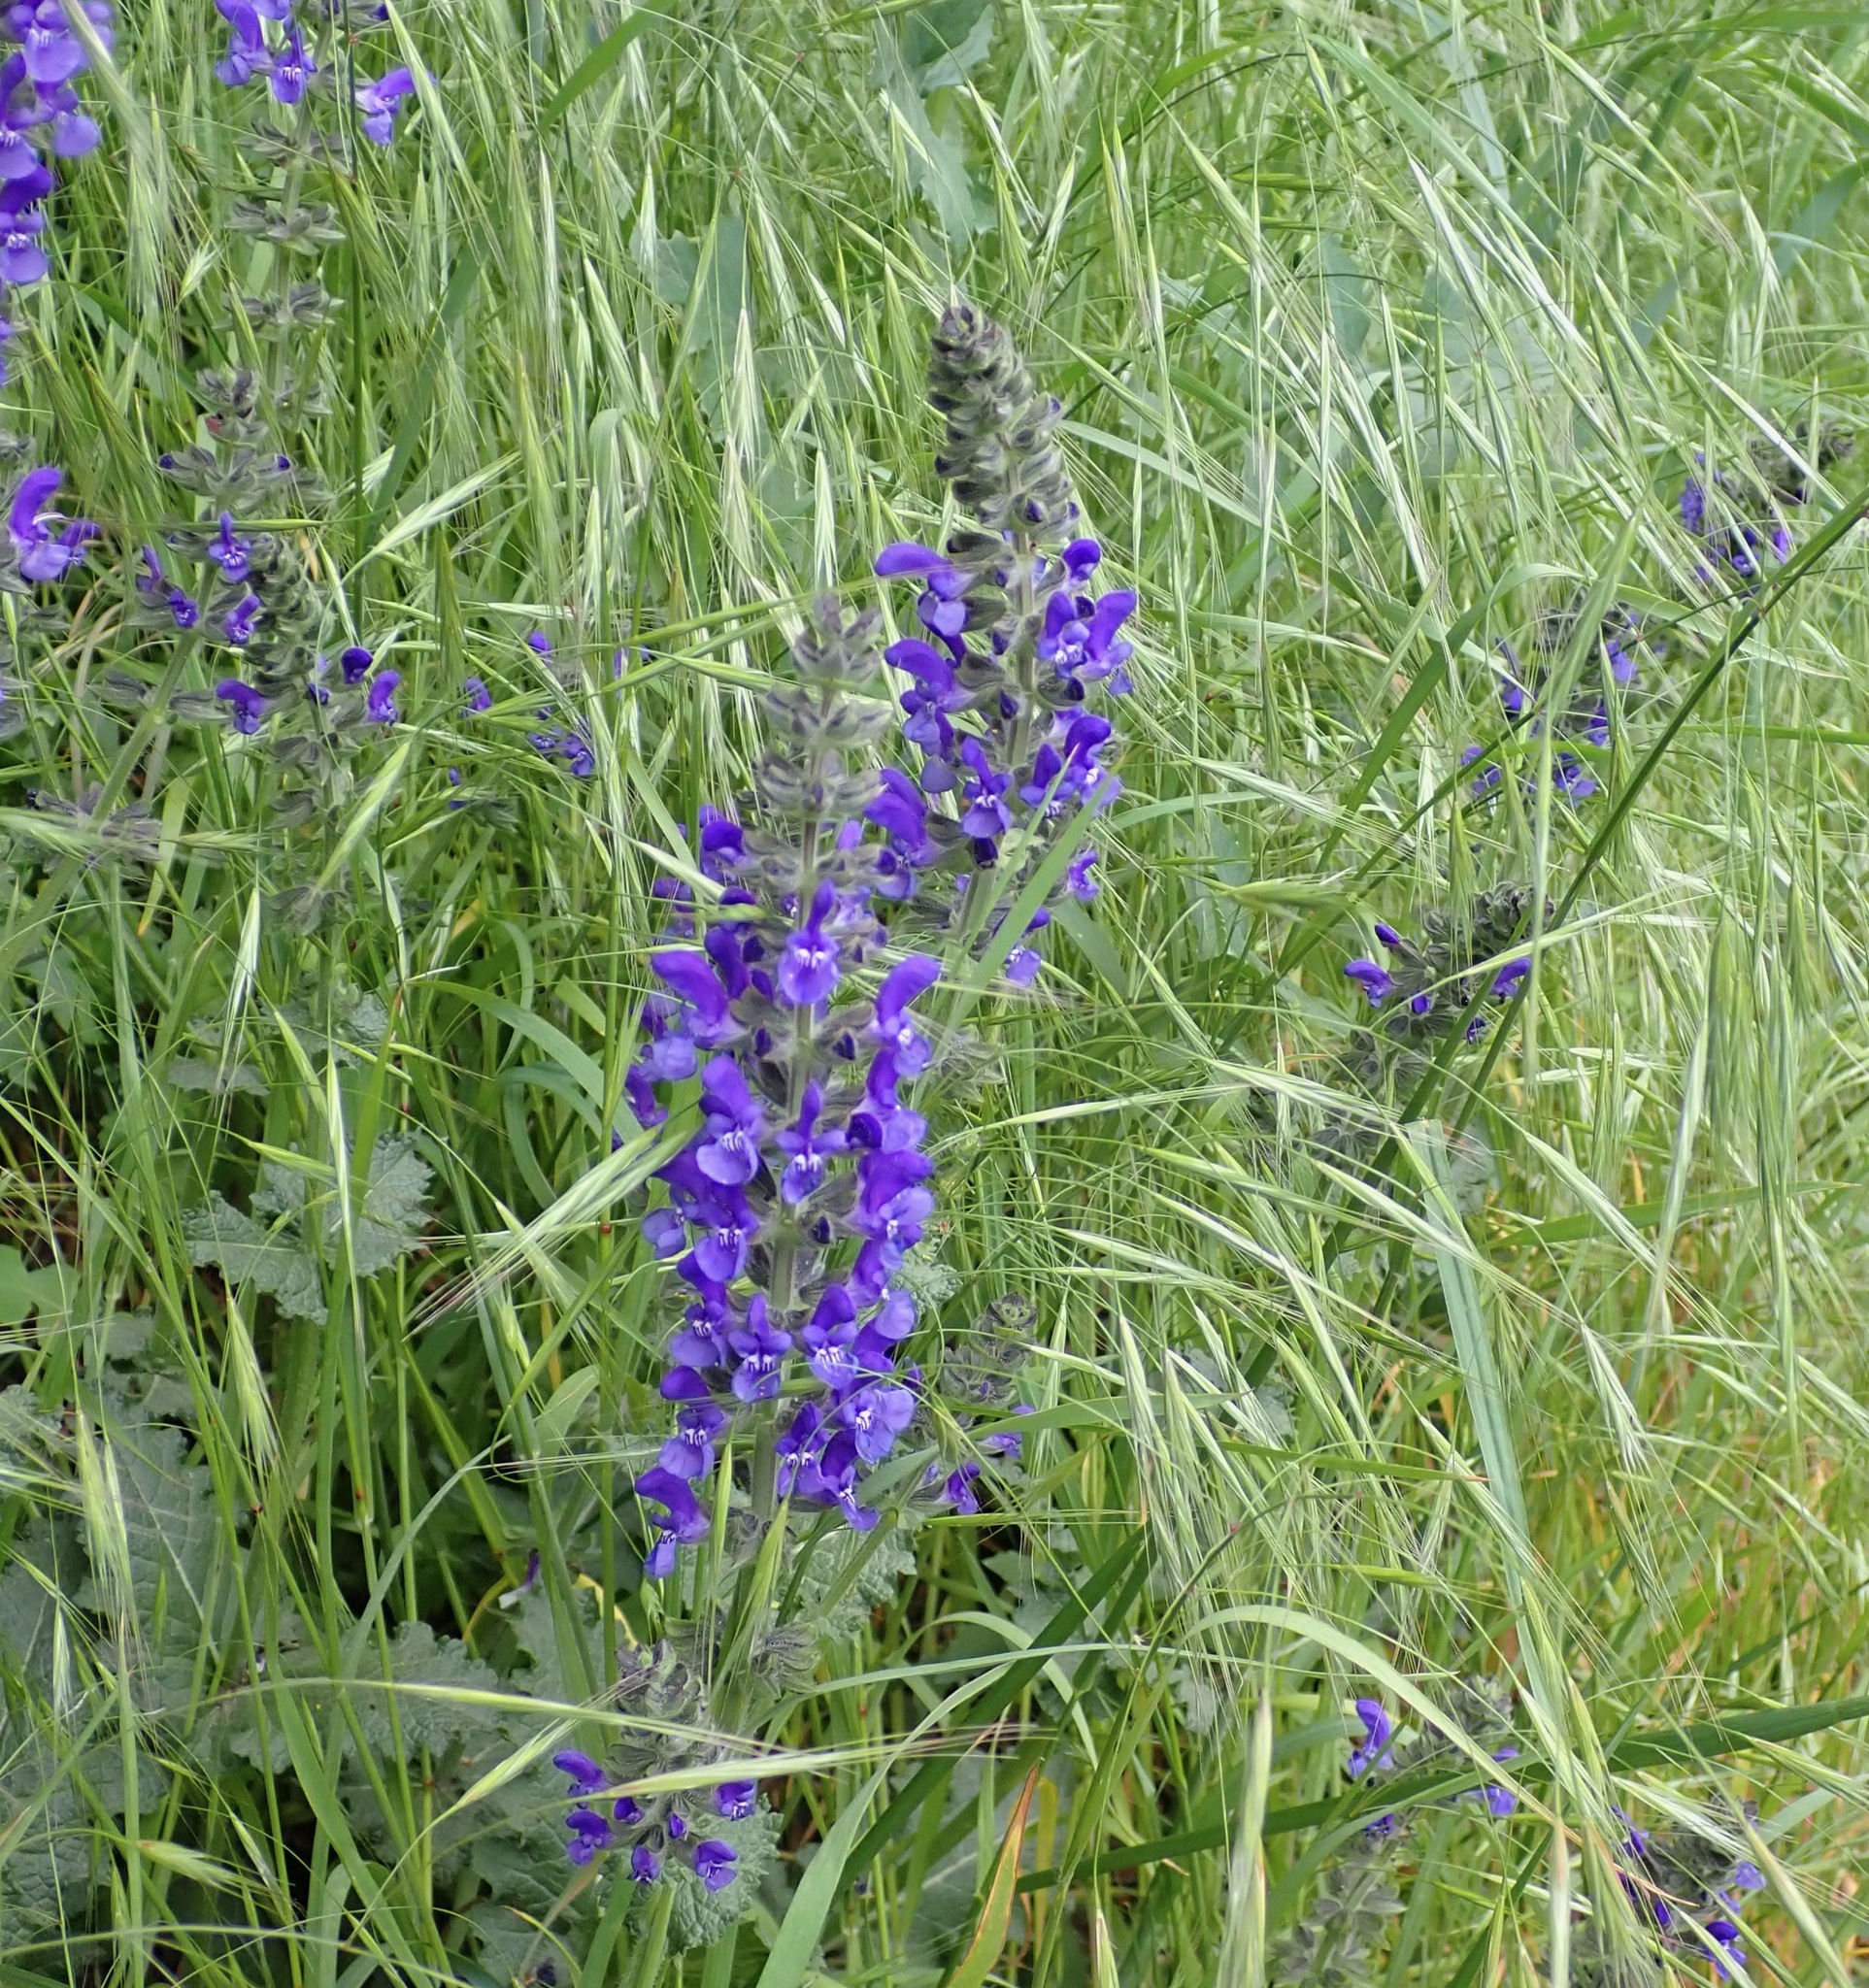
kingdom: Plantae
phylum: Tracheophyta
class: Magnoliopsida
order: Lamiales
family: Lamiaceae
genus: Salvia
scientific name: Salvia verbenaca
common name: Wild clary
